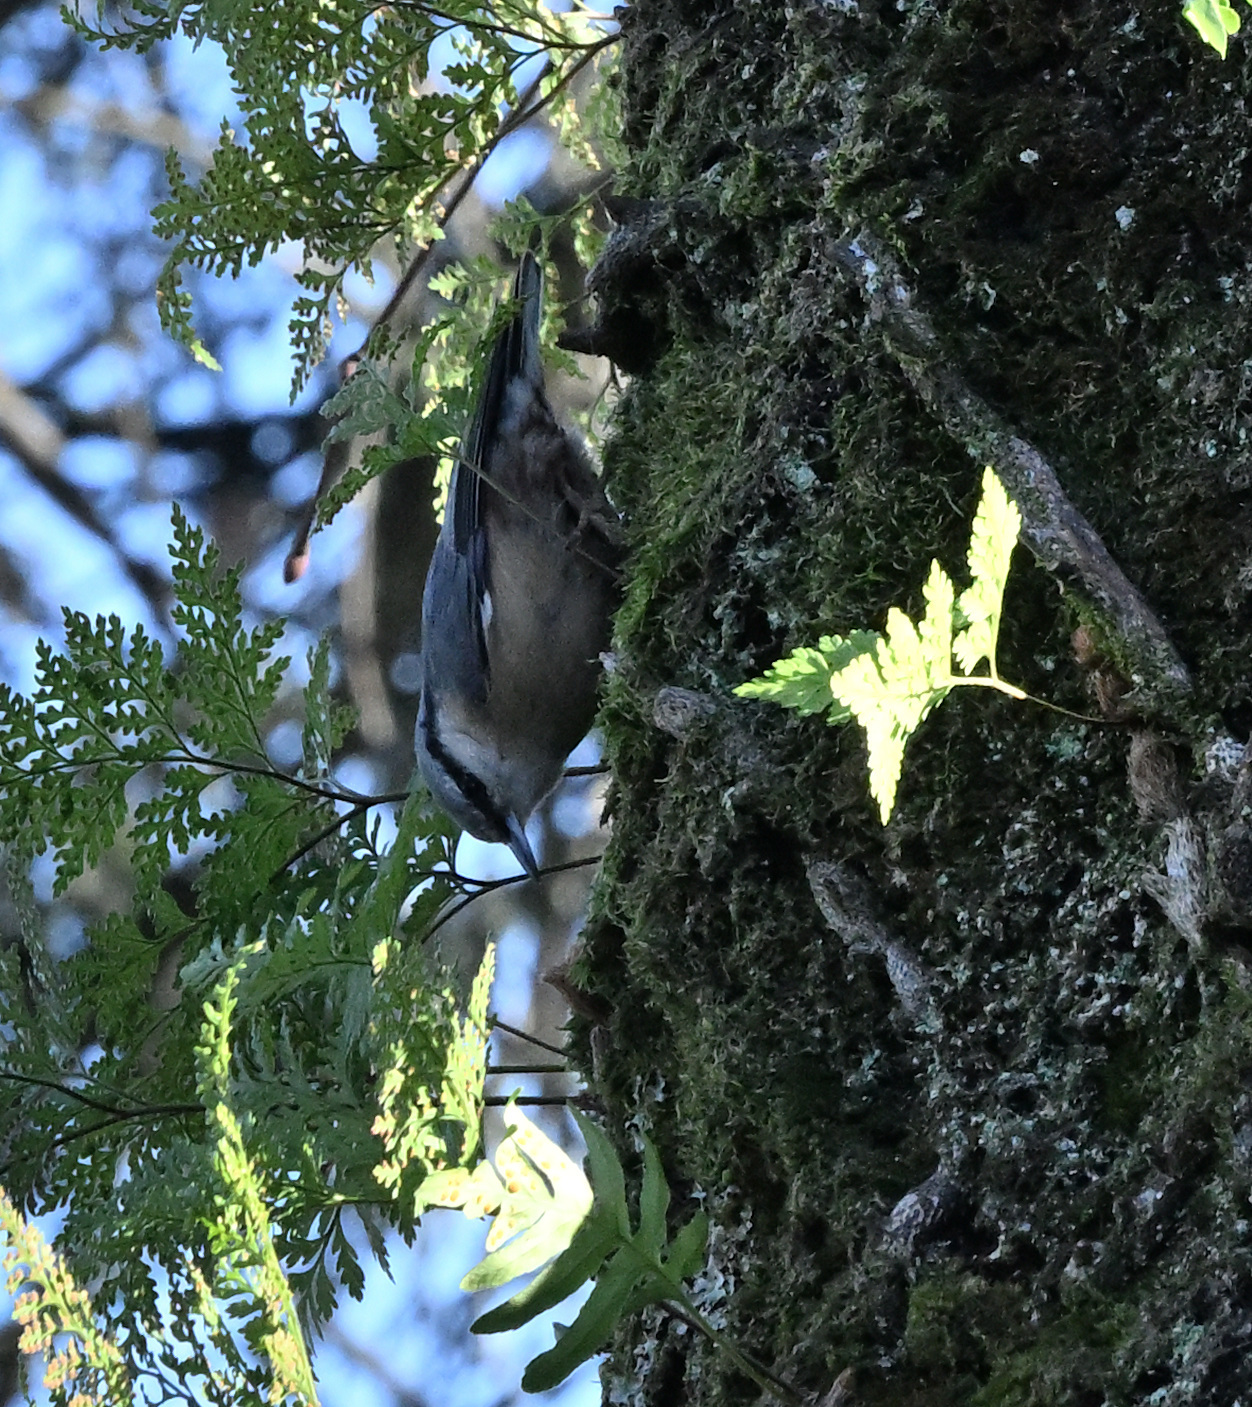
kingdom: Animalia
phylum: Chordata
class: Aves
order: Passeriformes
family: Sittidae
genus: Sitta
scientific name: Sitta europaea
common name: Eurasian nuthatch
